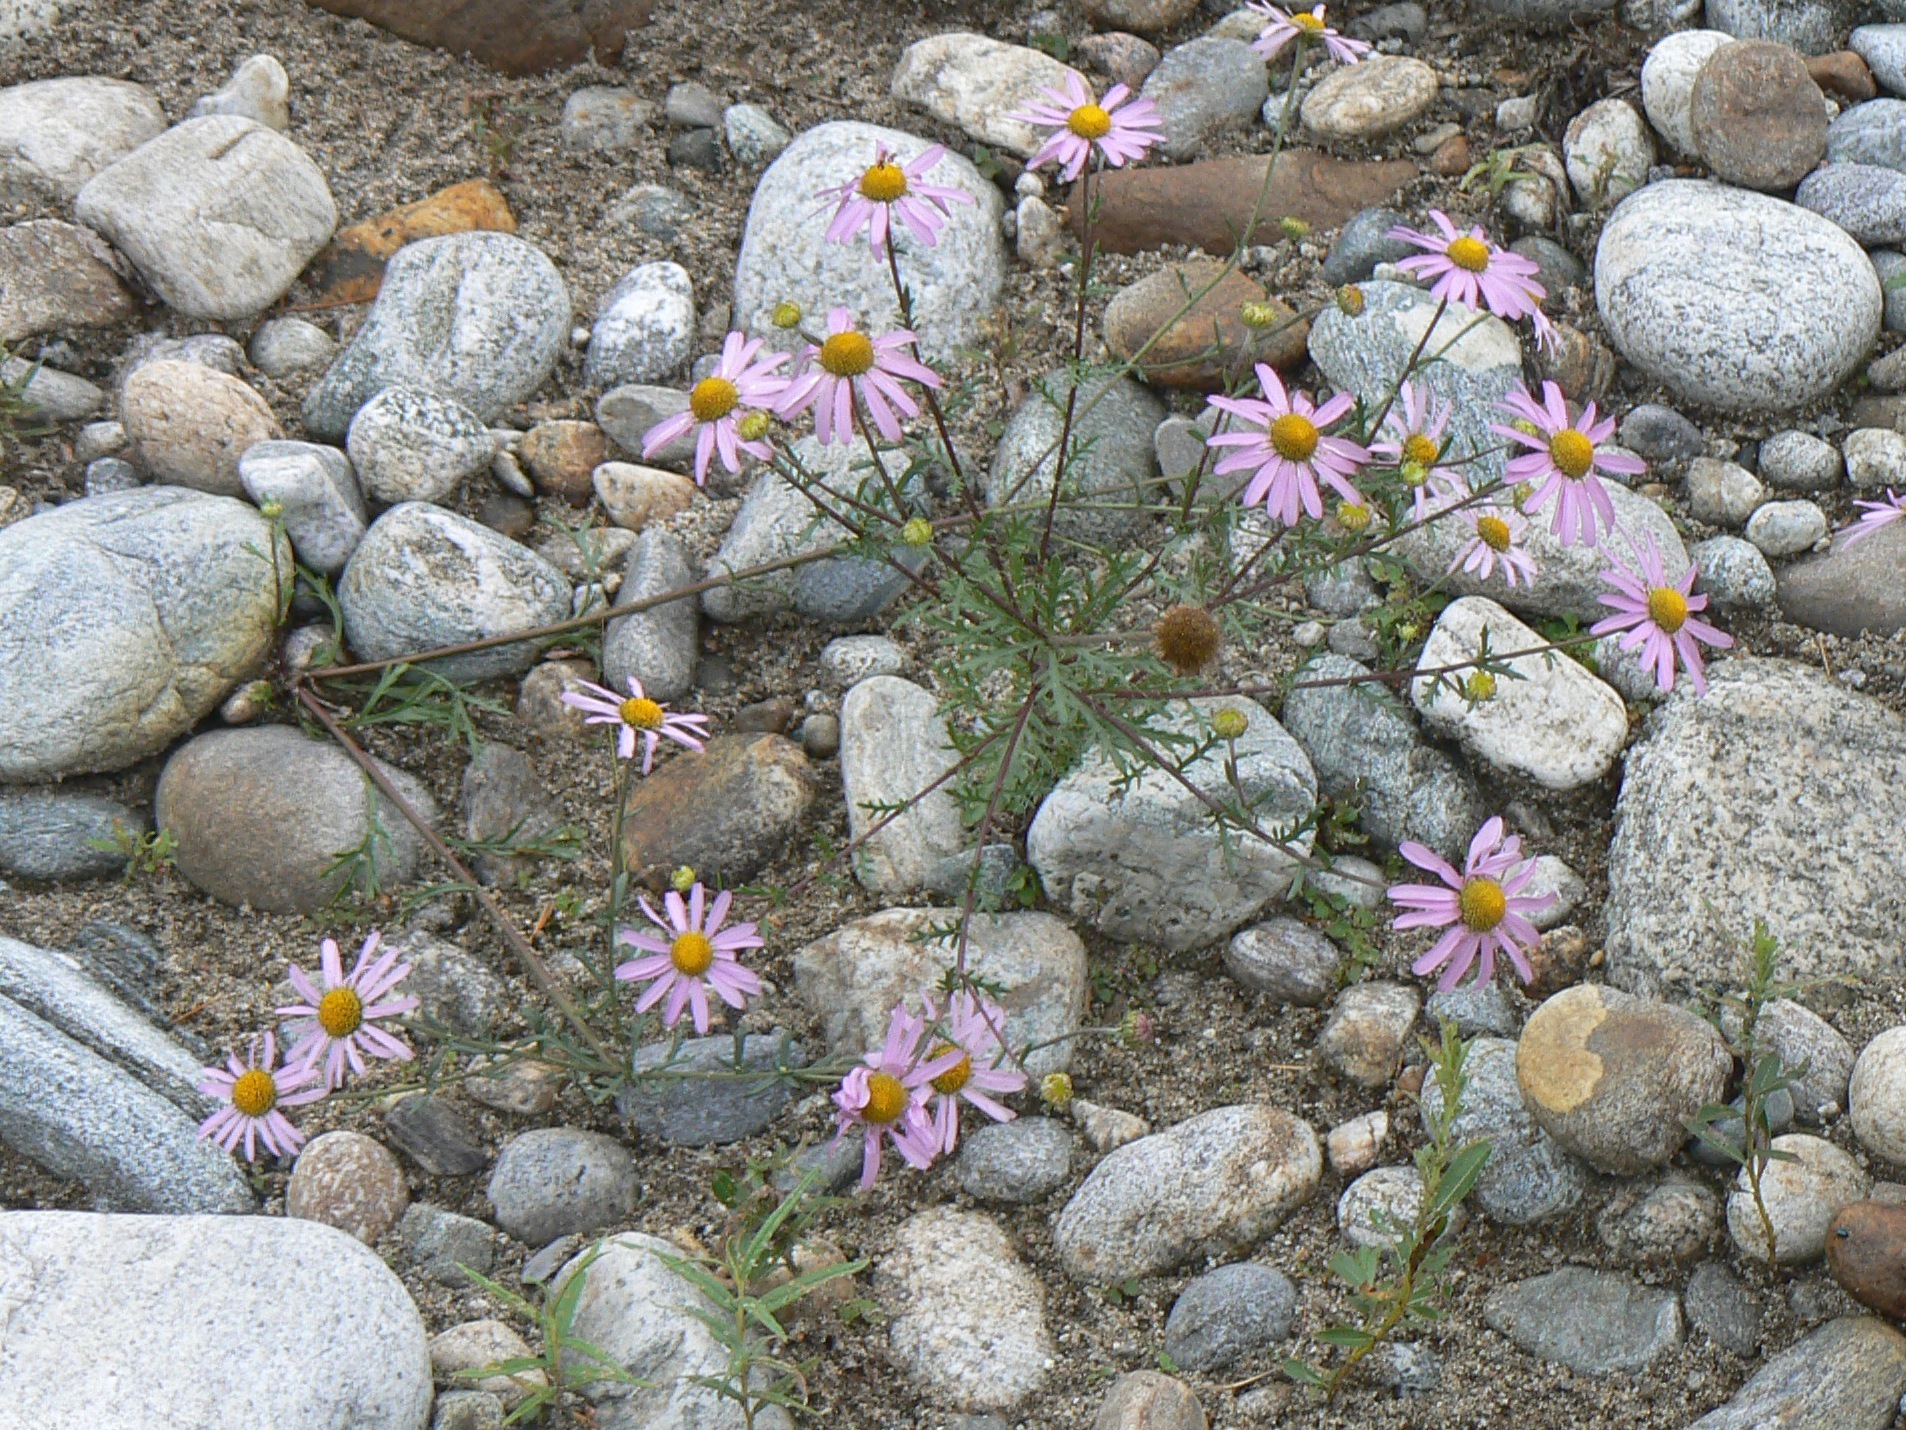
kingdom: Plantae
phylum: Tracheophyta
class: Magnoliopsida
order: Asterales
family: Asteraceae
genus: Chrysanthemum
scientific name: Chrysanthemum zawadzkii
